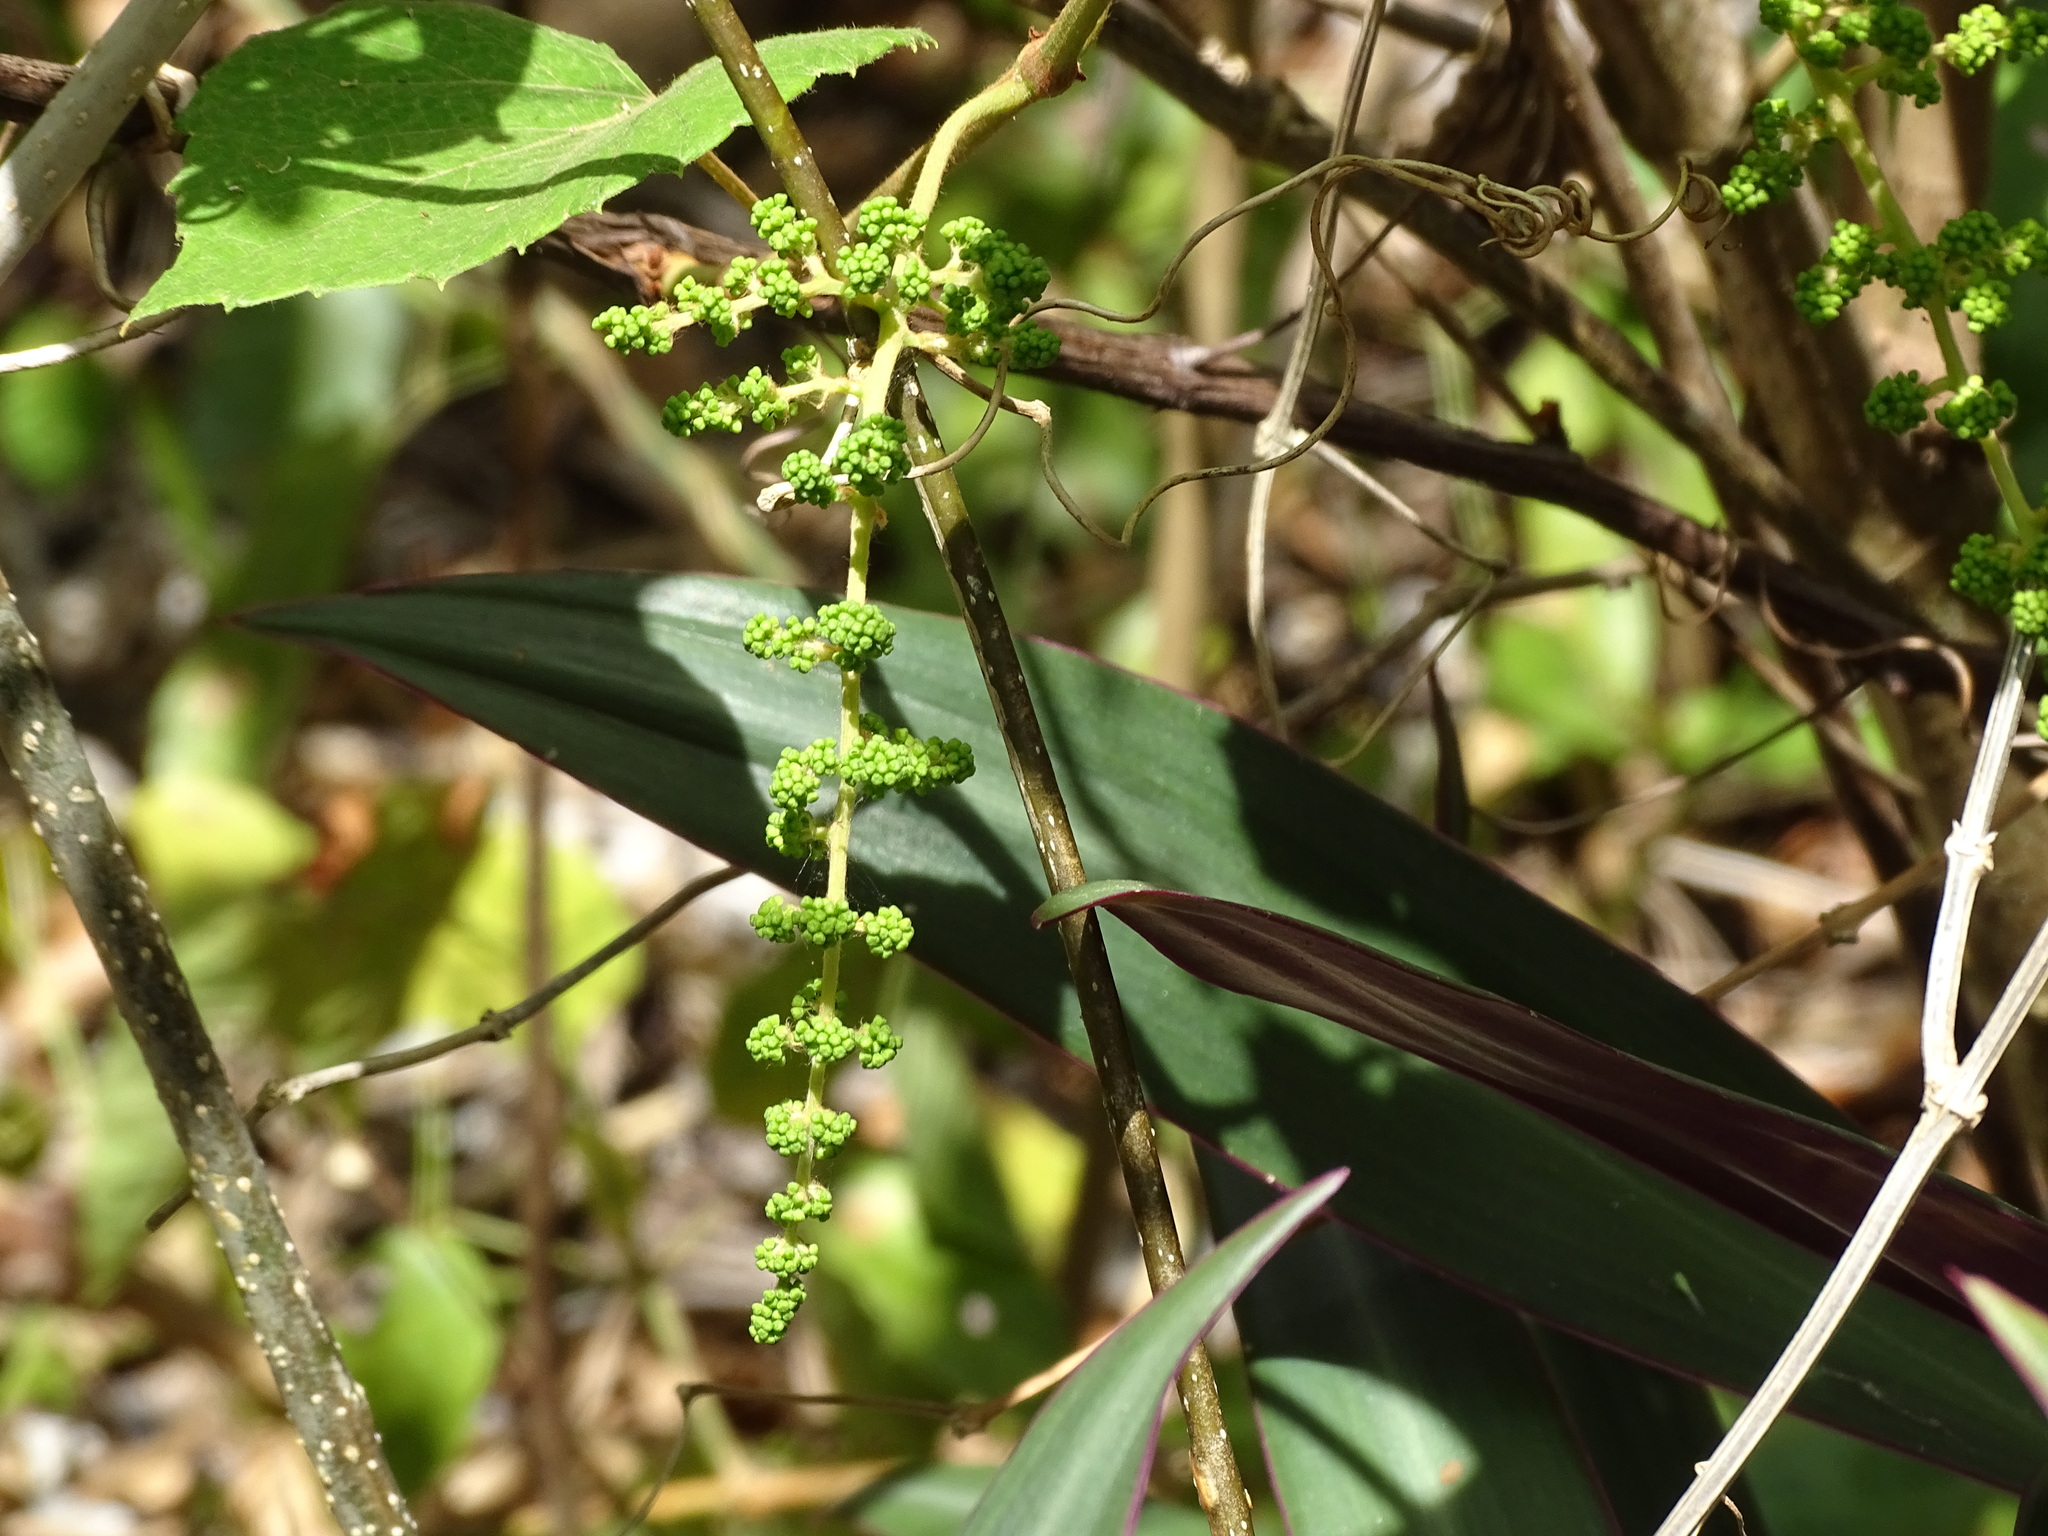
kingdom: Plantae
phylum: Tracheophyta
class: Magnoliopsida
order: Vitales
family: Vitaceae
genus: Vitis
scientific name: Vitis tiliifolia
